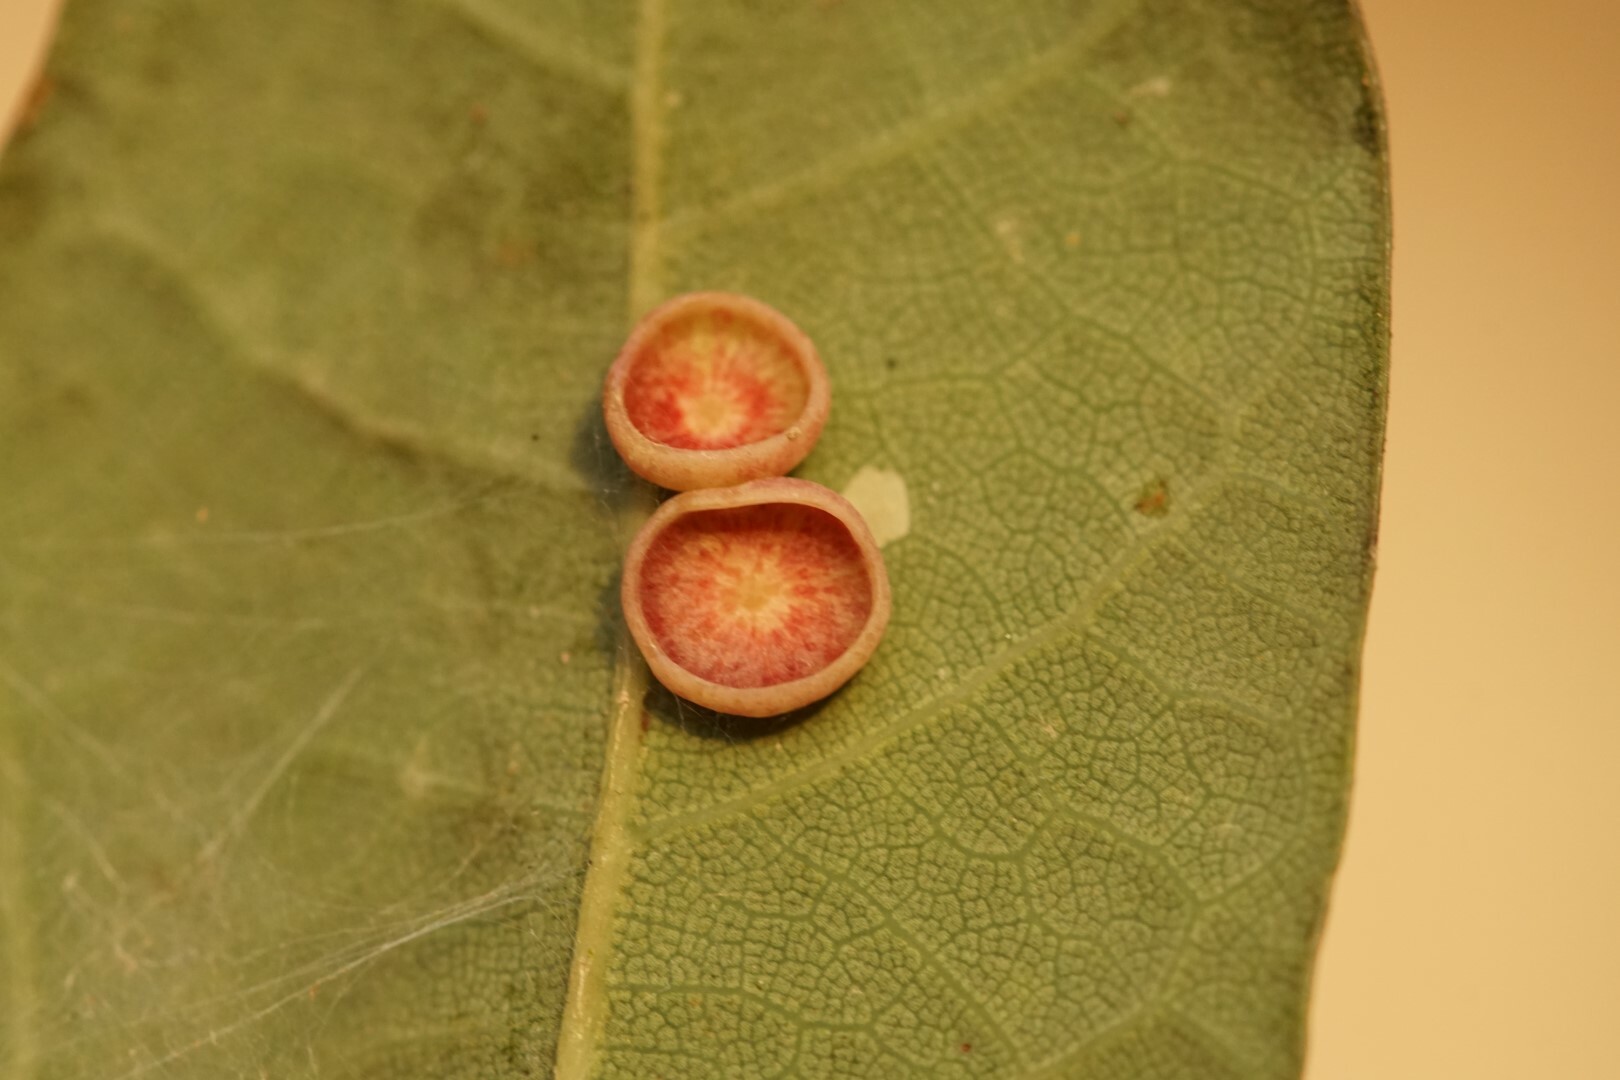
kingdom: Animalia
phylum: Arthropoda
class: Insecta
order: Hymenoptera
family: Cynipidae
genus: Neuroterus
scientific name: Neuroterus albipes
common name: Smooth spangle gall
